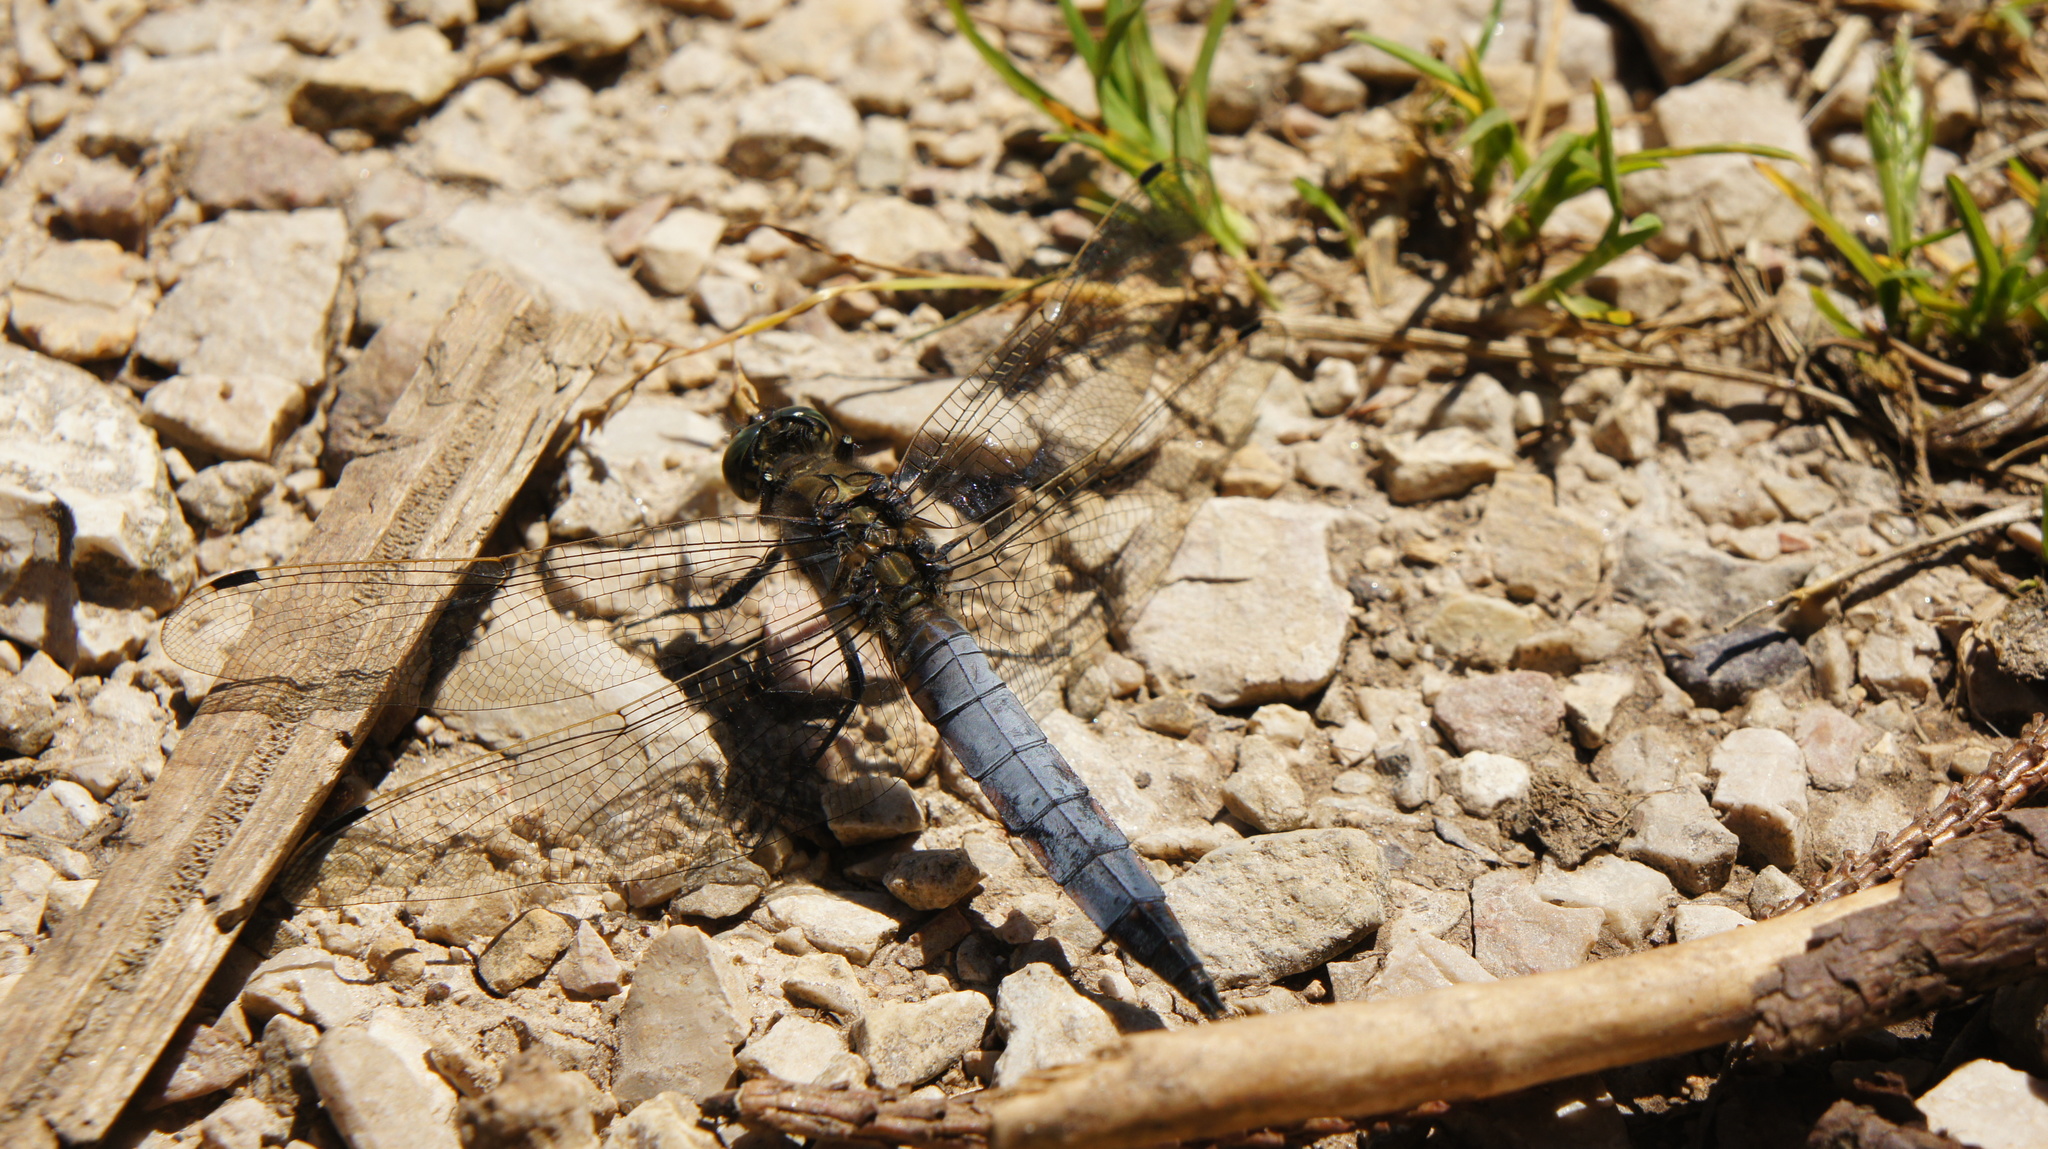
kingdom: Animalia
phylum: Arthropoda
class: Insecta
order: Odonata
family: Libellulidae
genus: Orthetrum
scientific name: Orthetrum cancellatum
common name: Black-tailed skimmer
